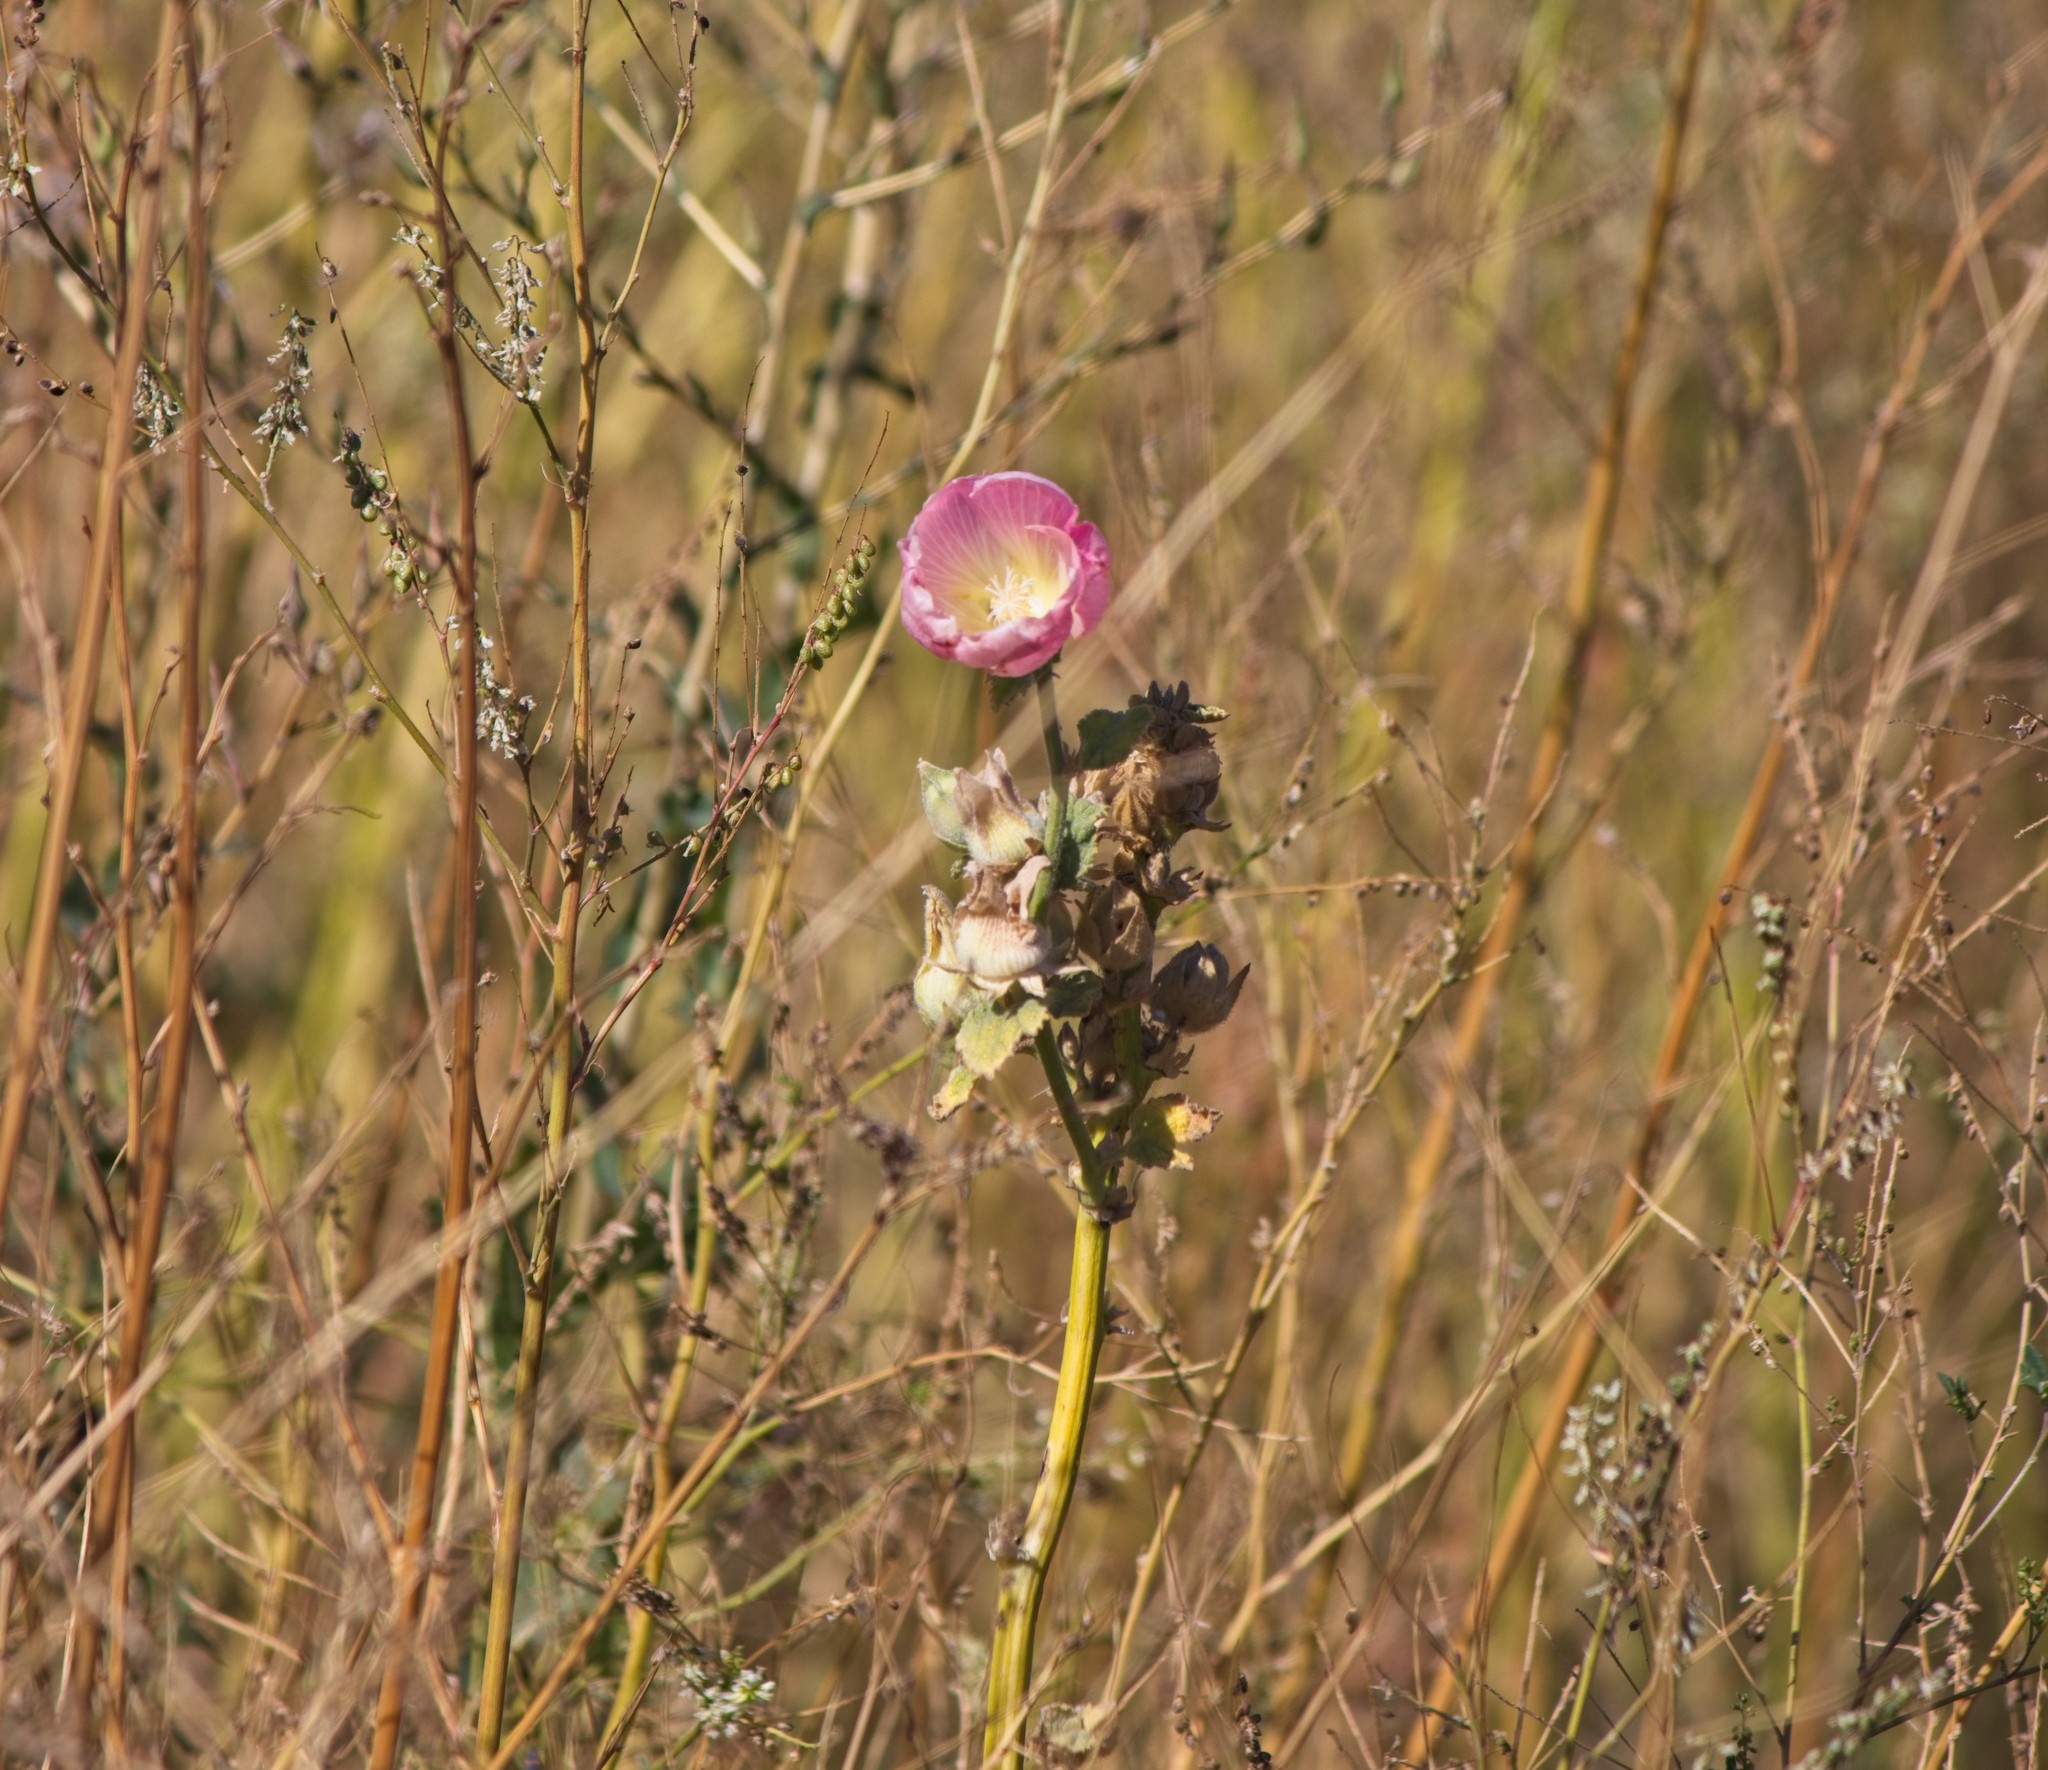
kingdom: Plantae
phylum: Tracheophyta
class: Magnoliopsida
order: Malvales
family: Malvaceae
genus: Iliamna
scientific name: Iliamna rivularis
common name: Wild hollyhock
